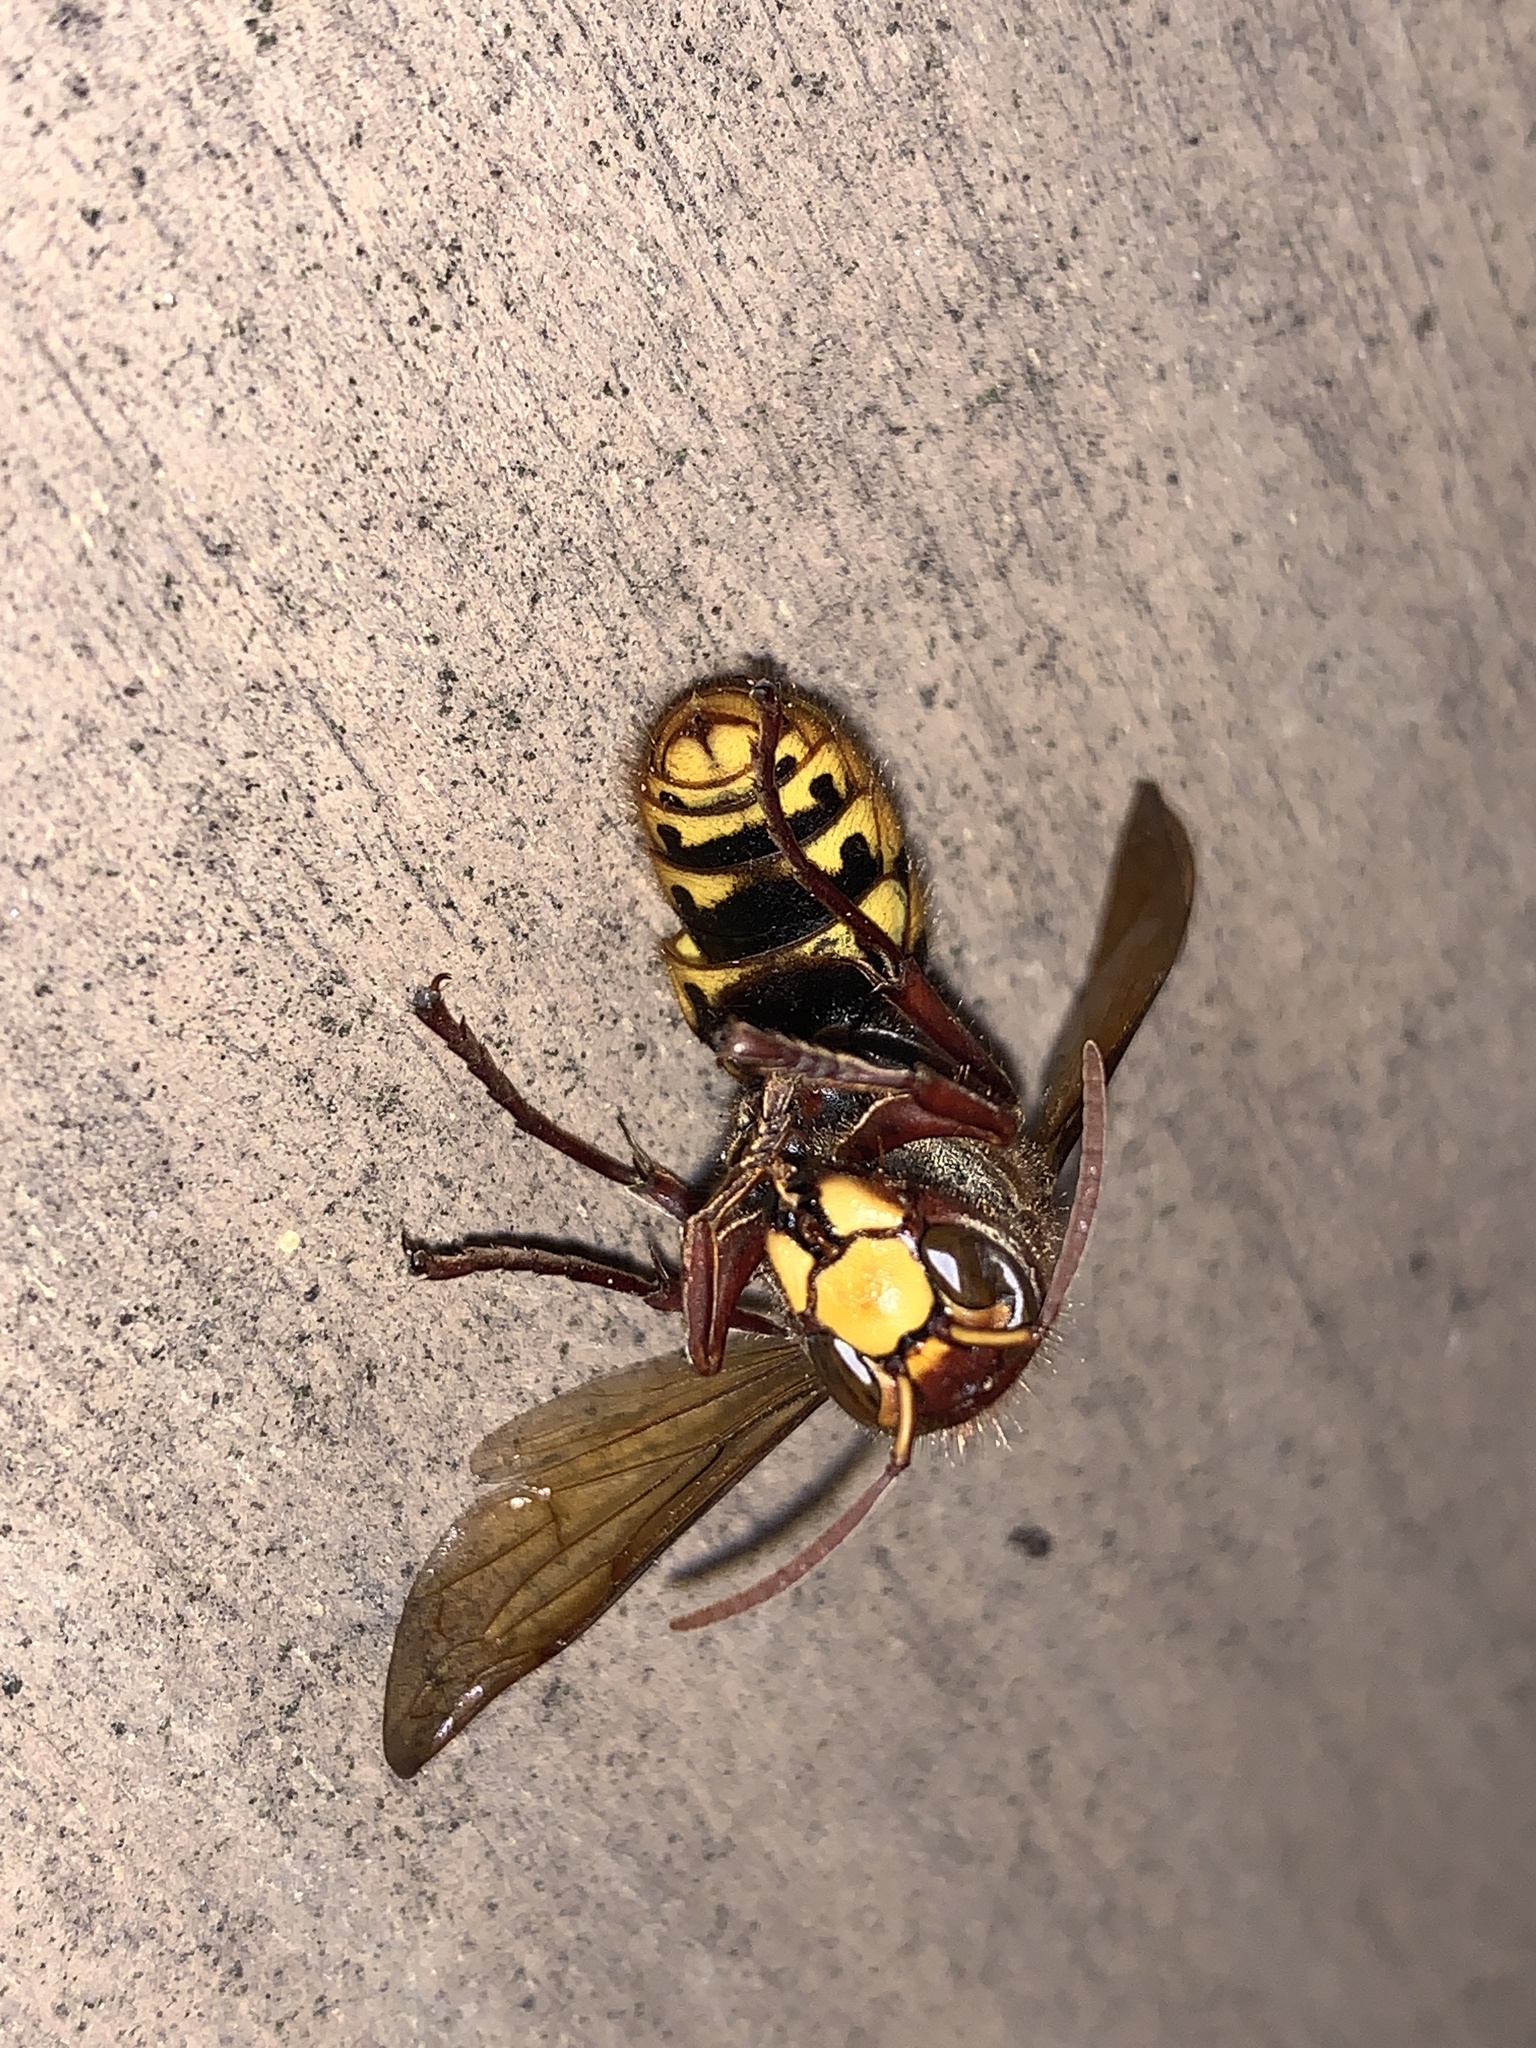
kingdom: Animalia
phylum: Arthropoda
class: Insecta
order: Hymenoptera
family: Vespidae
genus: Vespa
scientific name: Vespa crabro
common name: Hornet
